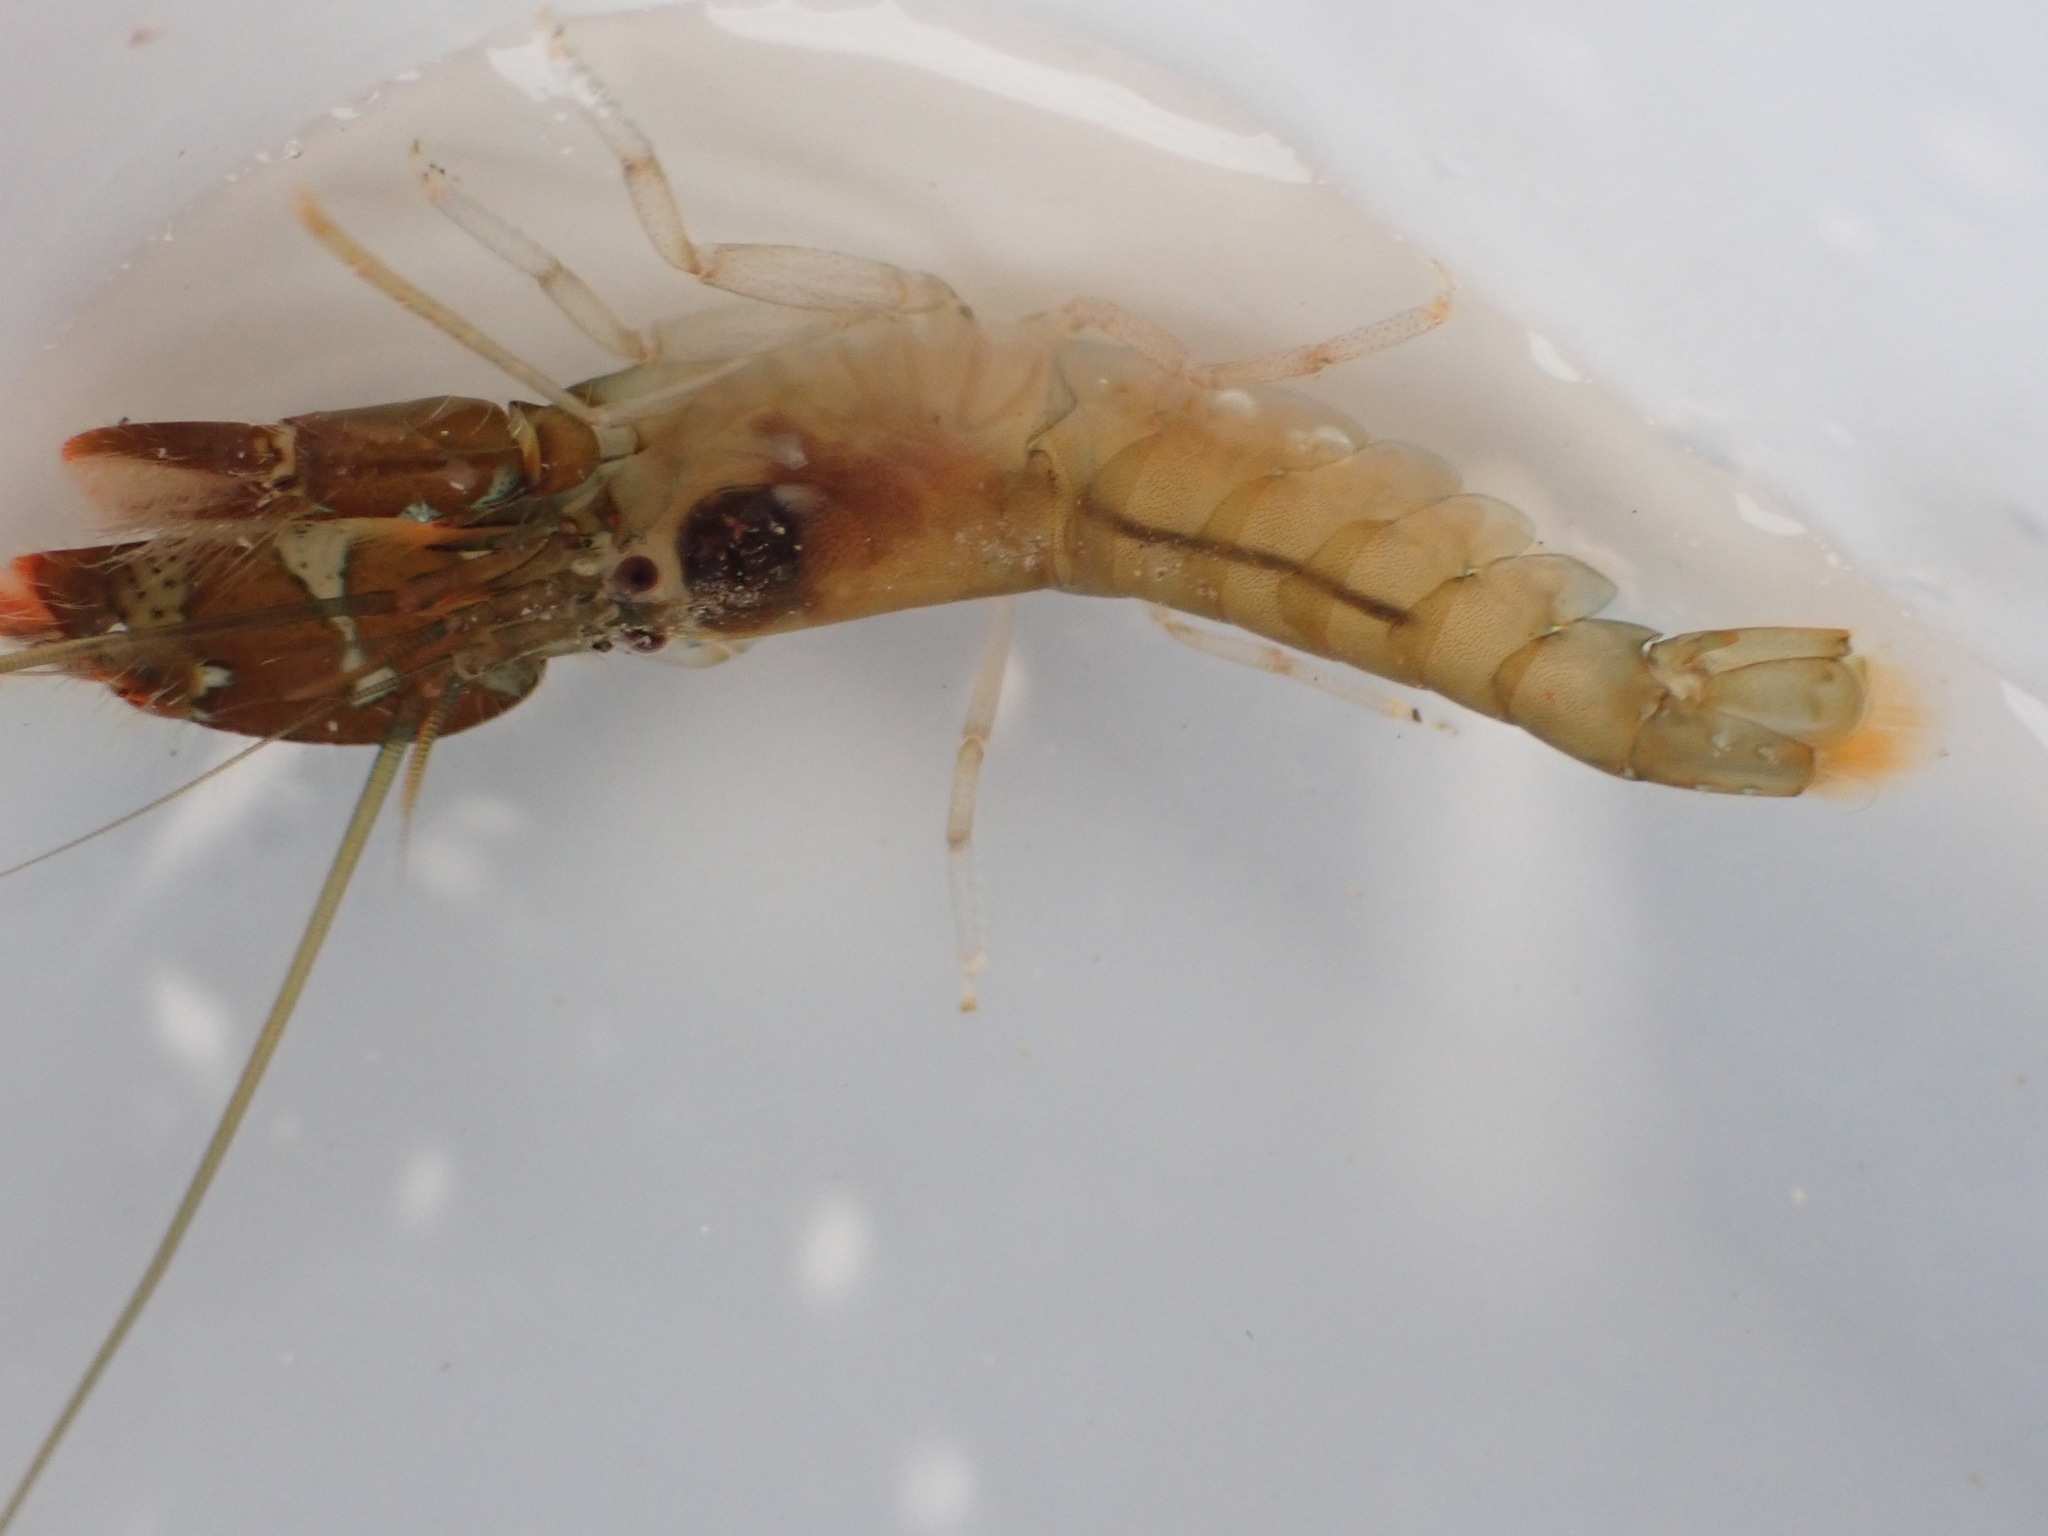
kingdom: Animalia
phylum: Arthropoda
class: Malacostraca
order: Decapoda
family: Alpheidae
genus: Alpheus
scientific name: Alpheus socialis
